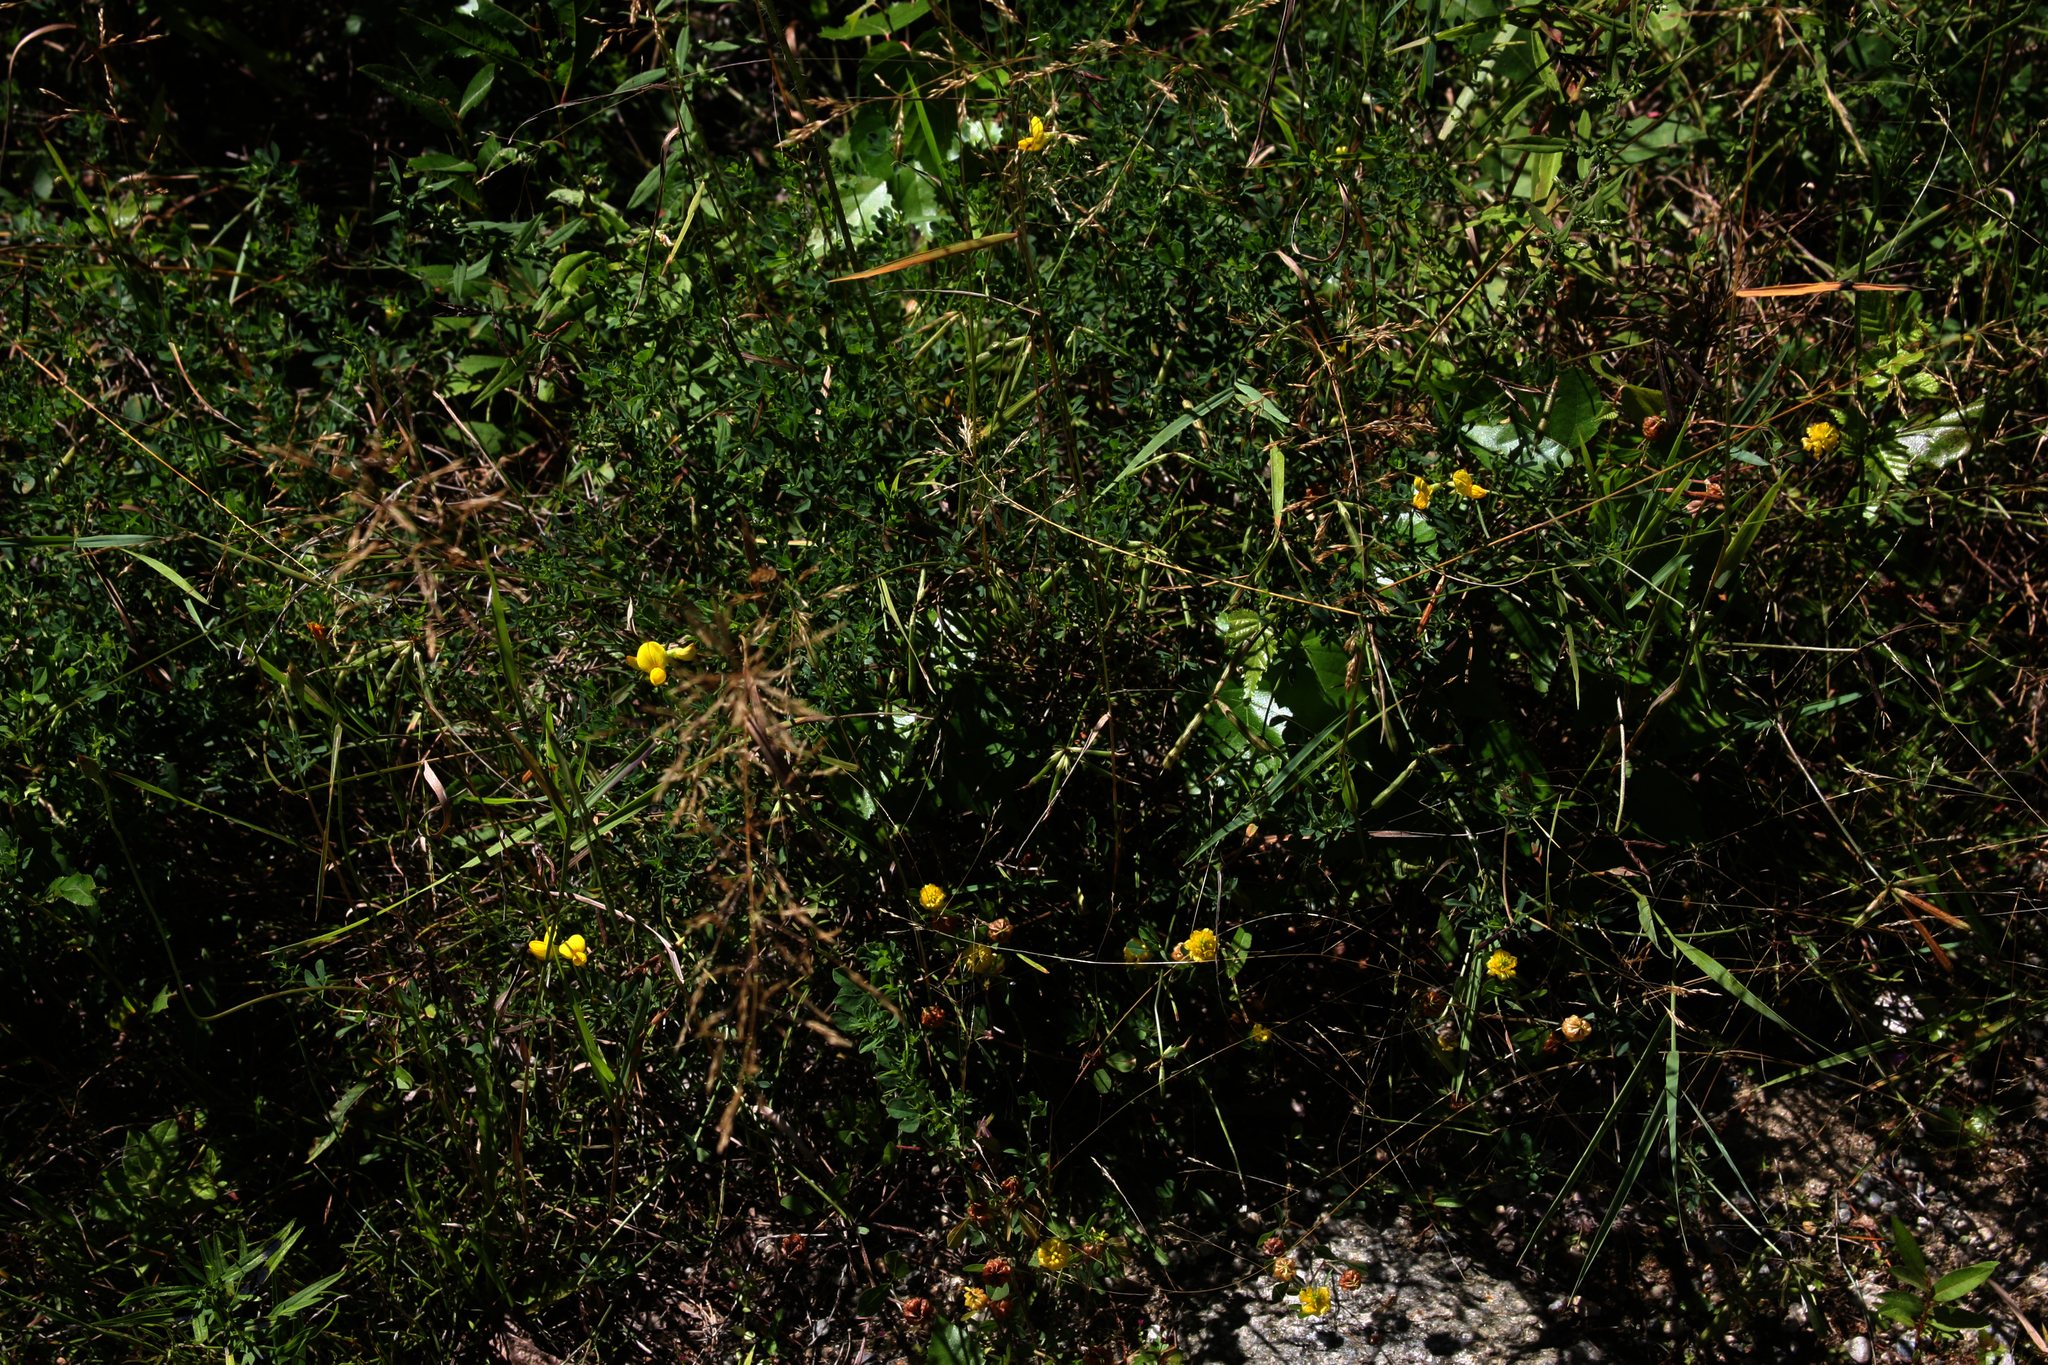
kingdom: Plantae
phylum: Tracheophyta
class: Magnoliopsida
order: Fabales
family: Fabaceae
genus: Lotus
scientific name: Lotus corniculatus
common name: Common bird's-foot-trefoil
